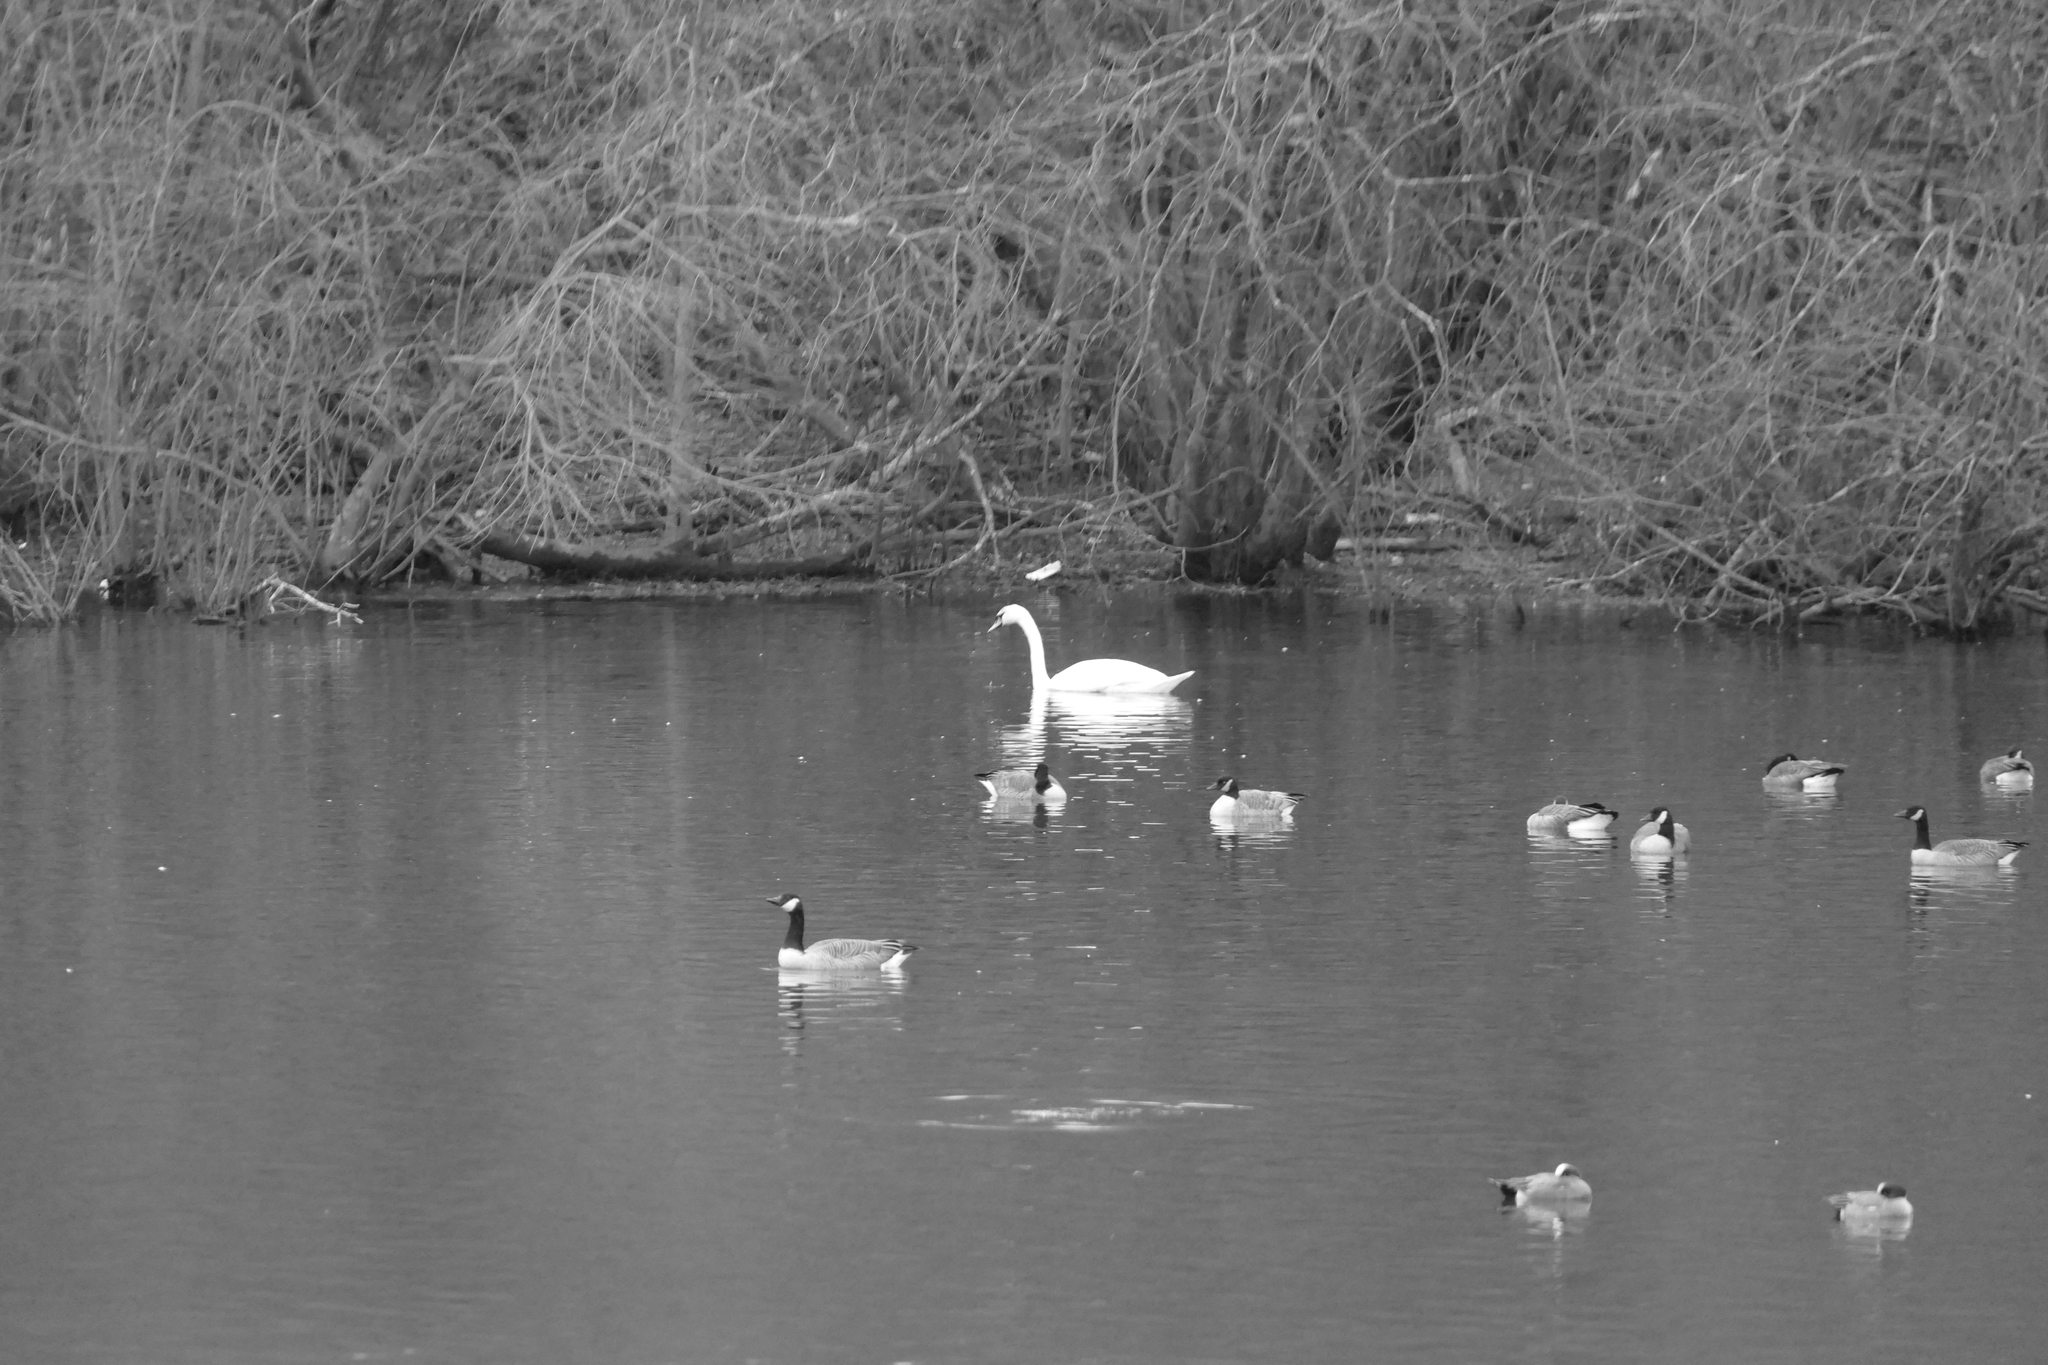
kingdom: Animalia
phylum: Chordata
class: Aves
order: Anseriformes
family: Anatidae
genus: Cygnus
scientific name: Cygnus olor
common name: Mute swan
